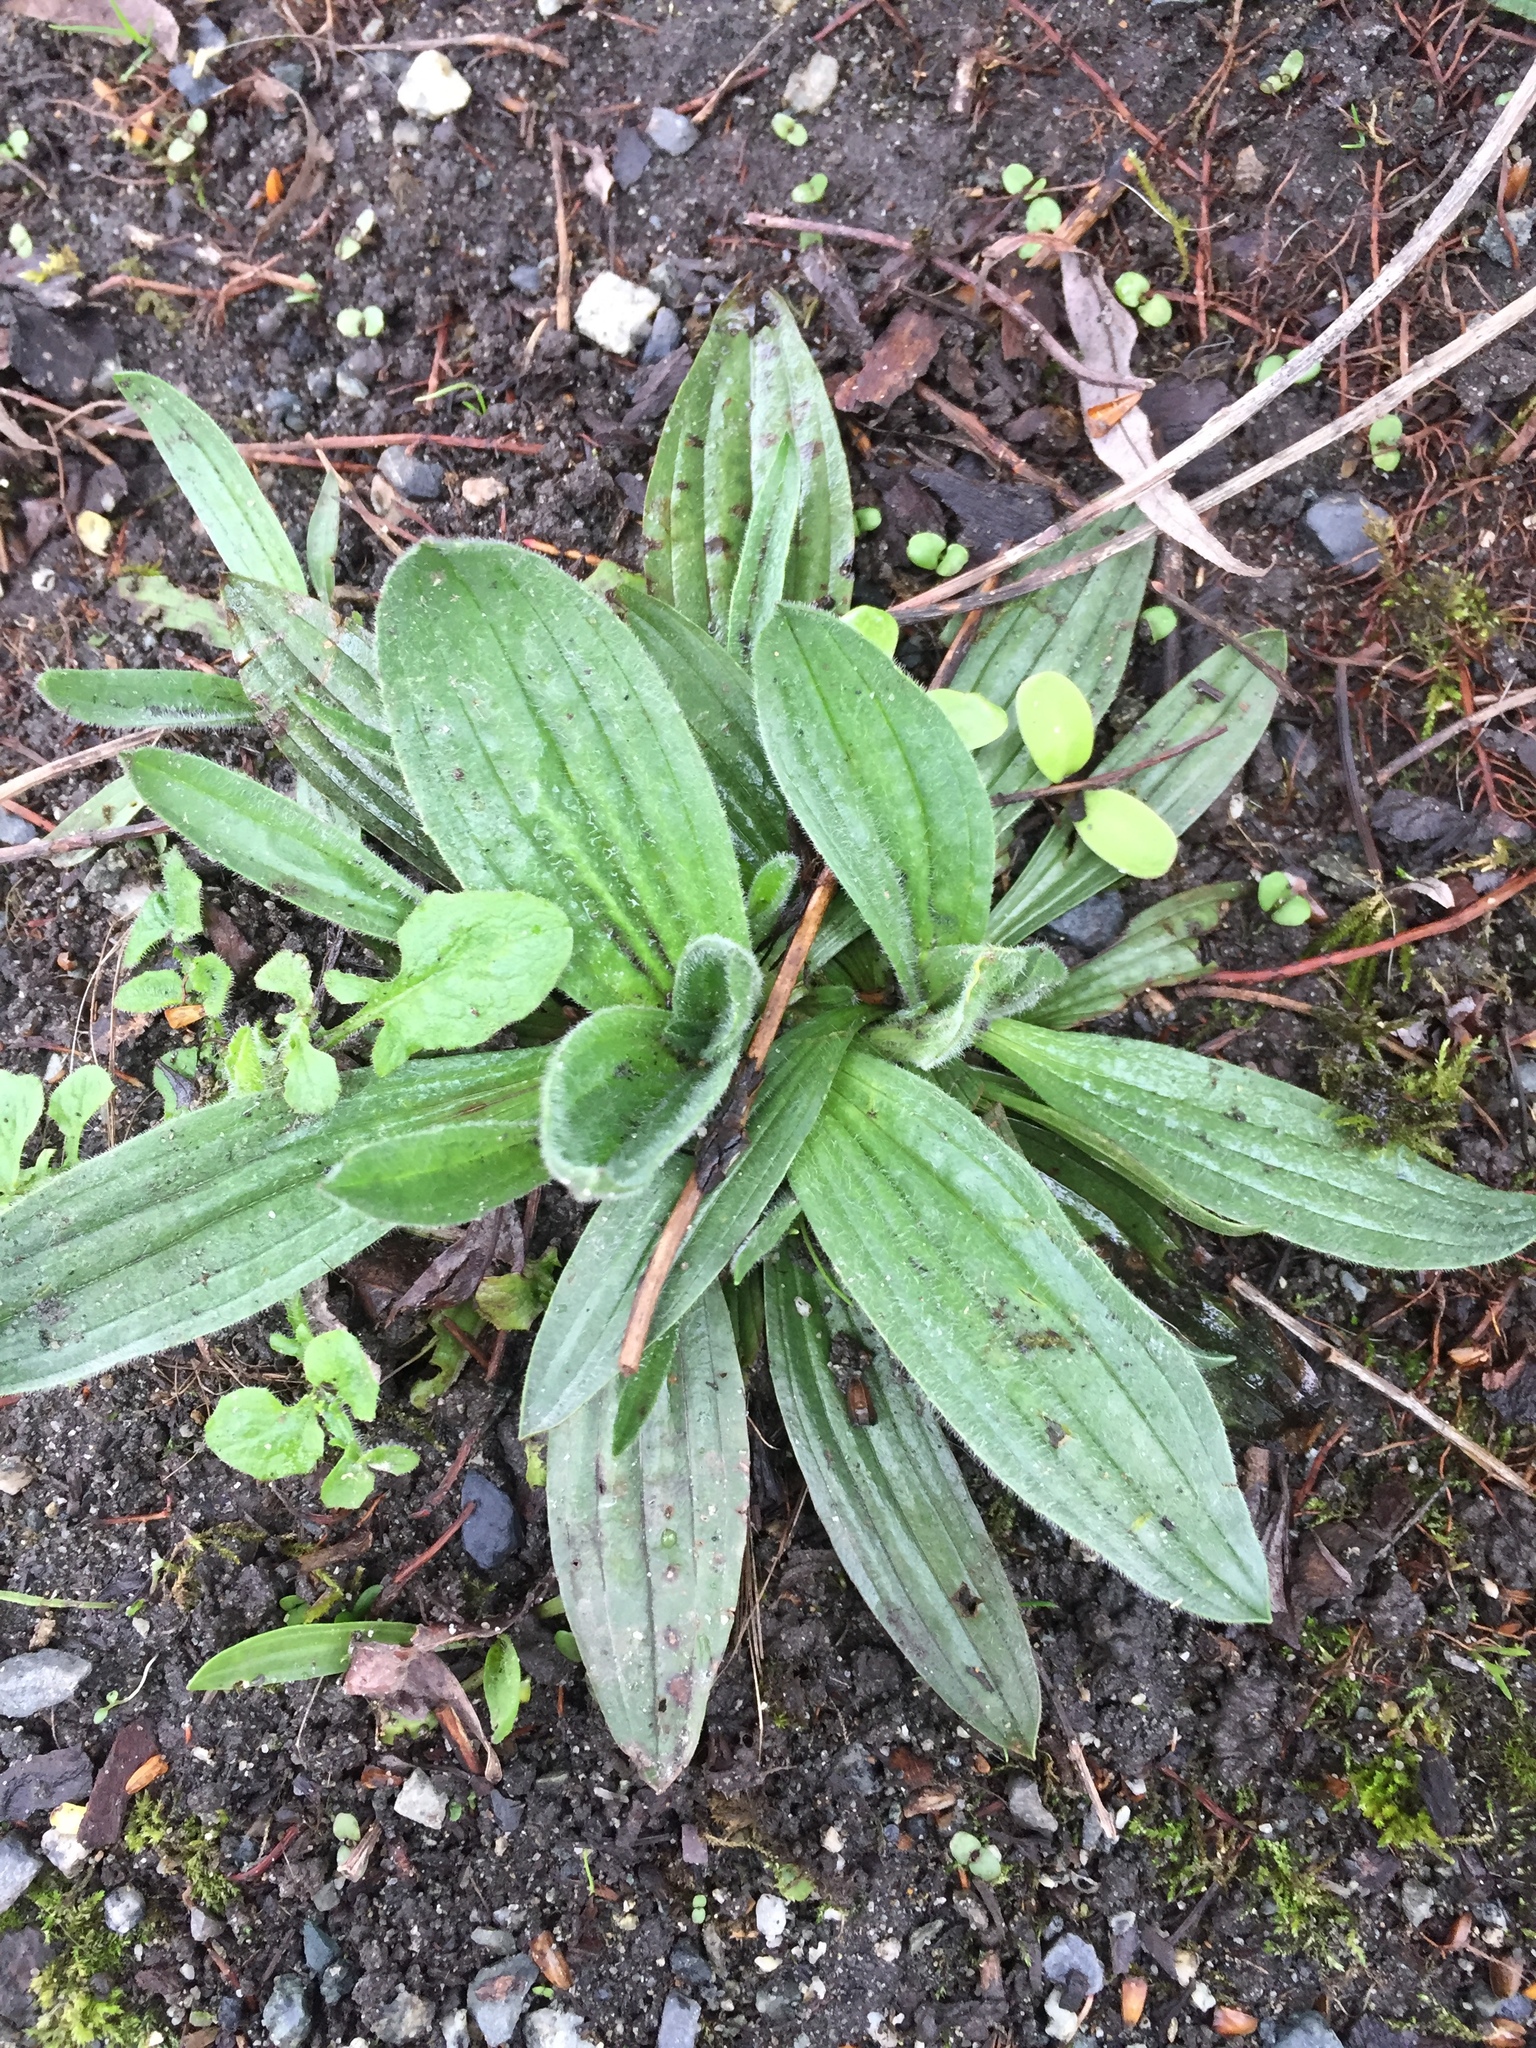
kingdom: Plantae
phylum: Tracheophyta
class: Magnoliopsida
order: Lamiales
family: Plantaginaceae
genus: Plantago
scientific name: Plantago lanceolata
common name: Ribwort plantain
